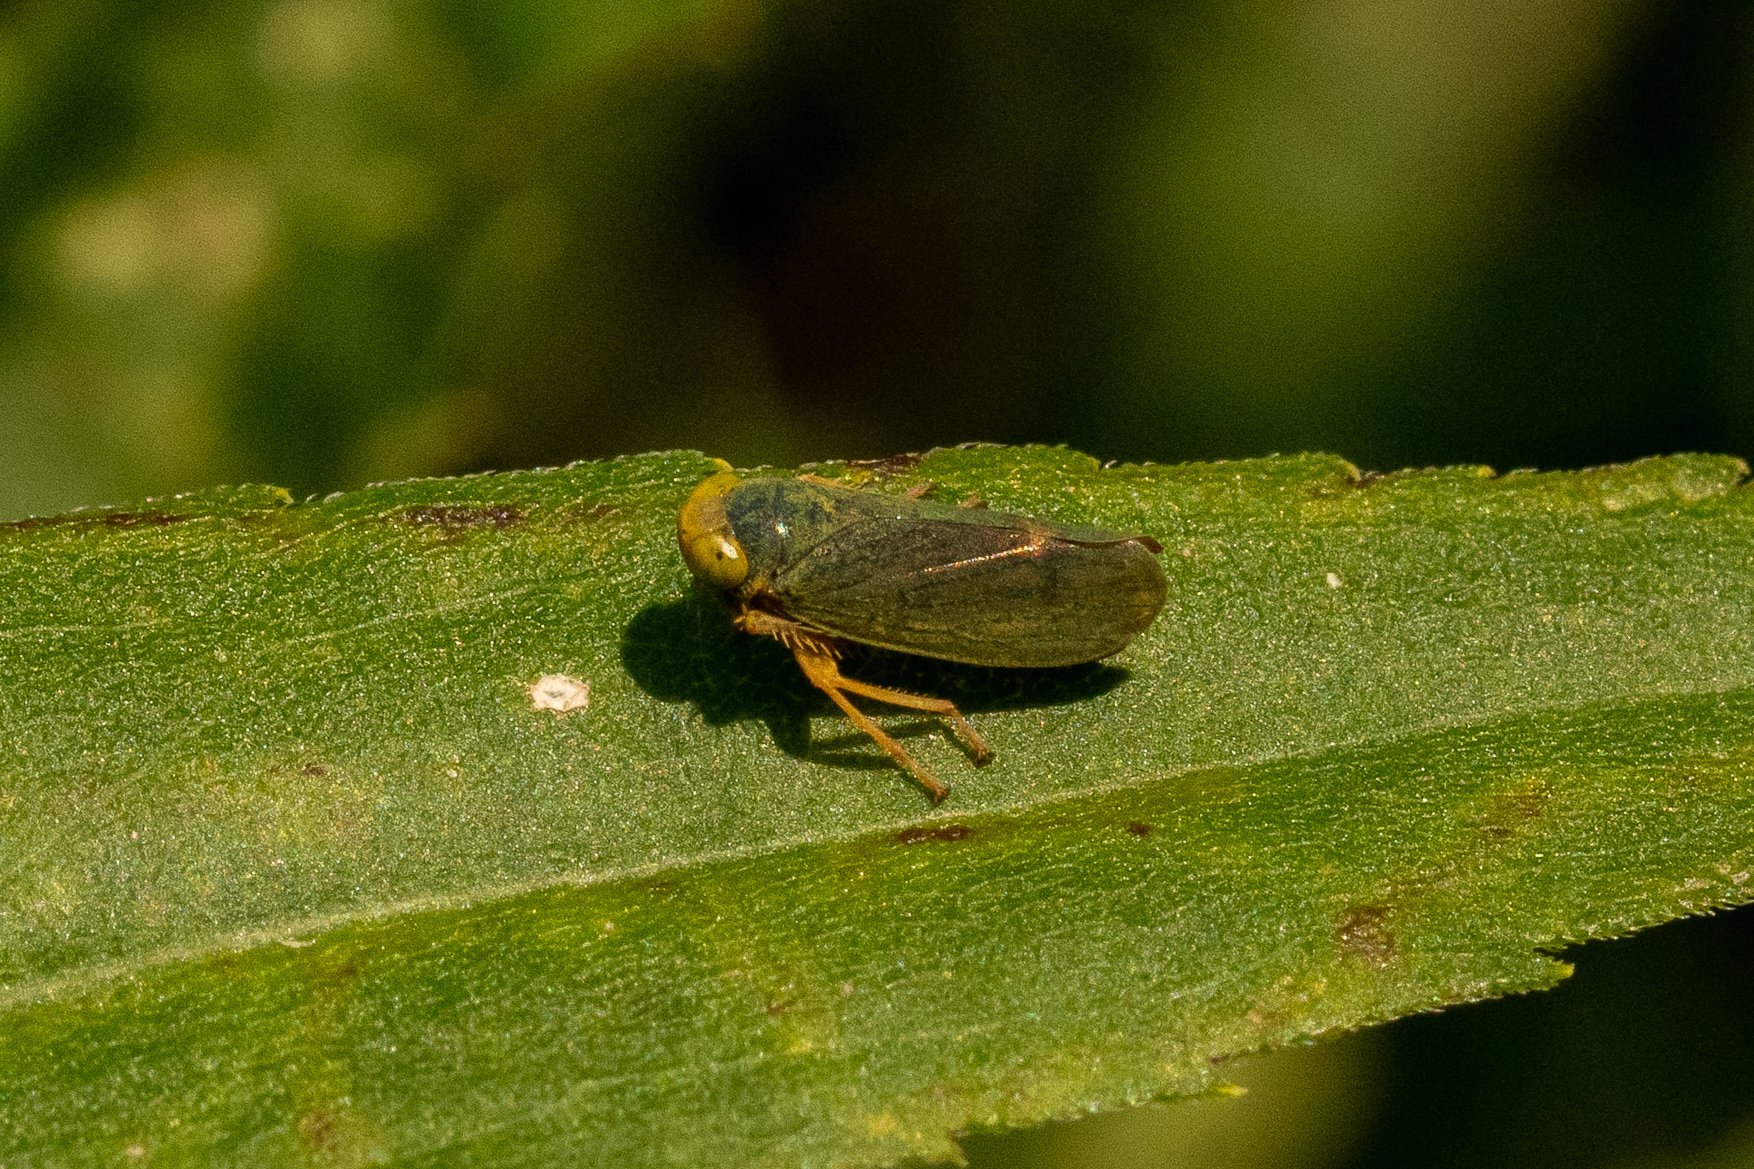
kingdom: Animalia
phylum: Arthropoda
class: Insecta
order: Hemiptera
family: Cicadellidae
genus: Jikradia
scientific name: Jikradia olitoria
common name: Coppery leafhopper
